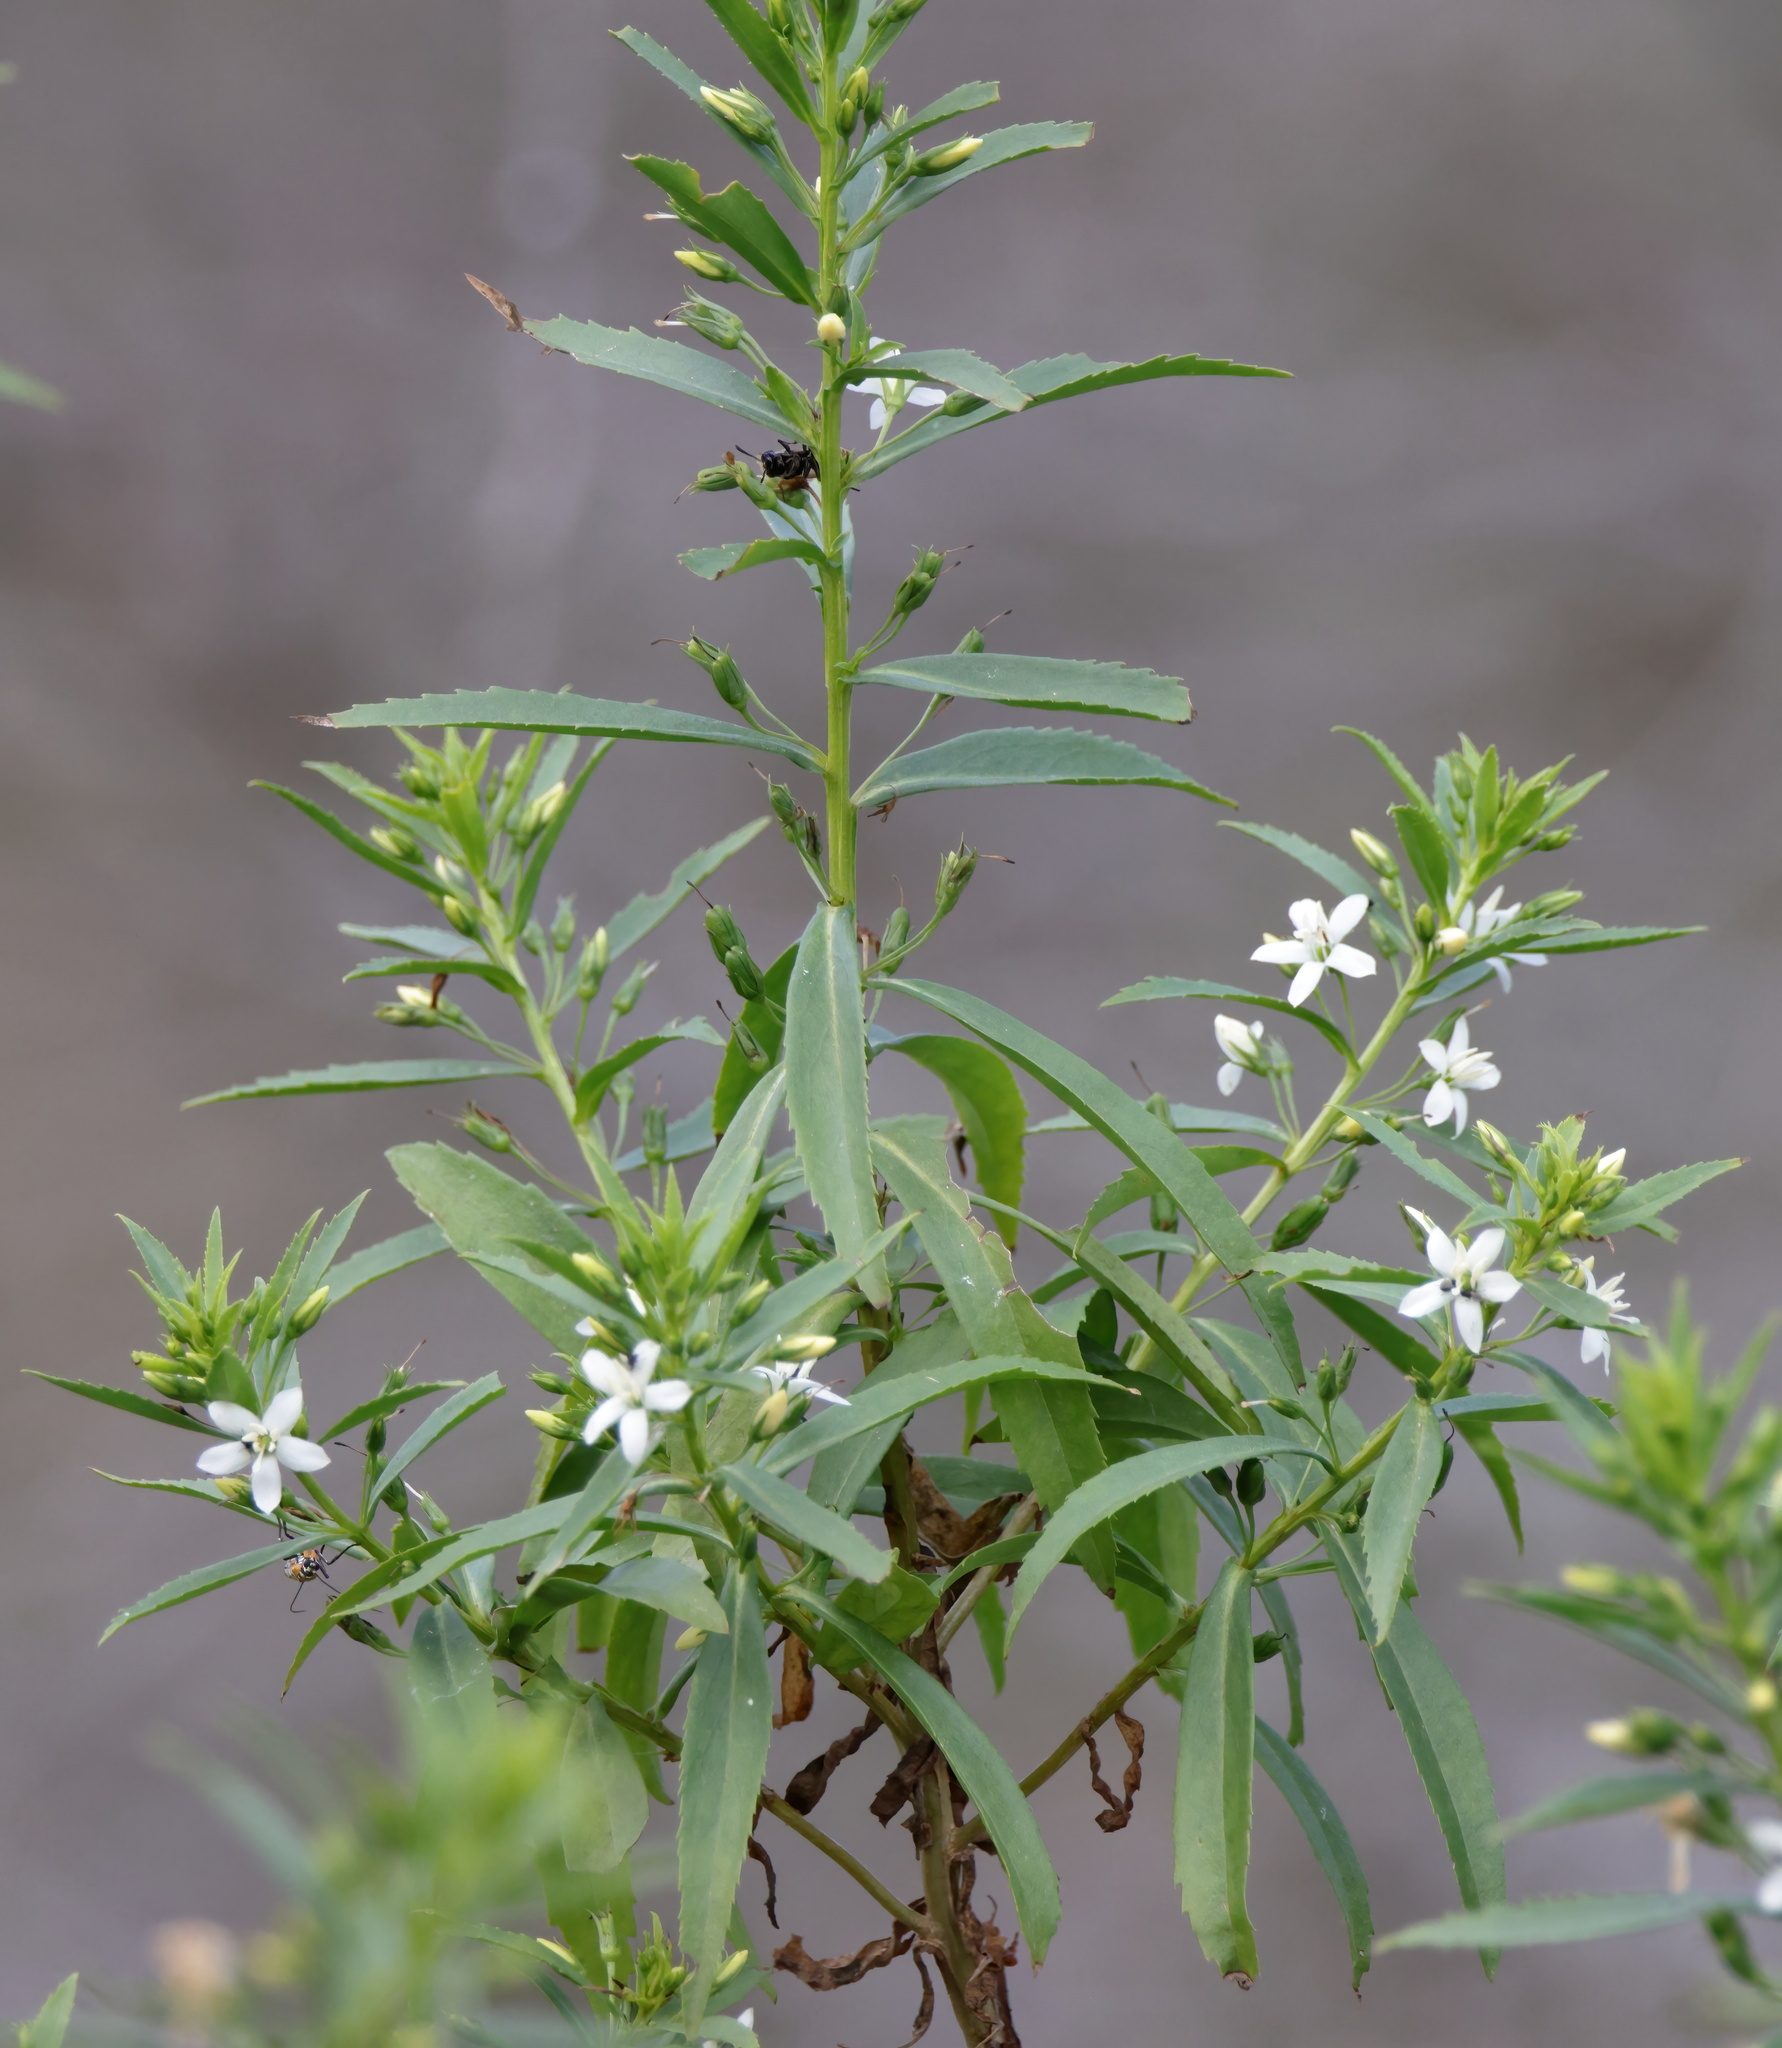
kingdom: Plantae
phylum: Tracheophyta
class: Magnoliopsida
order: Lamiales
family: Scrophulariaceae
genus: Capraria
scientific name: Capraria mexicana
